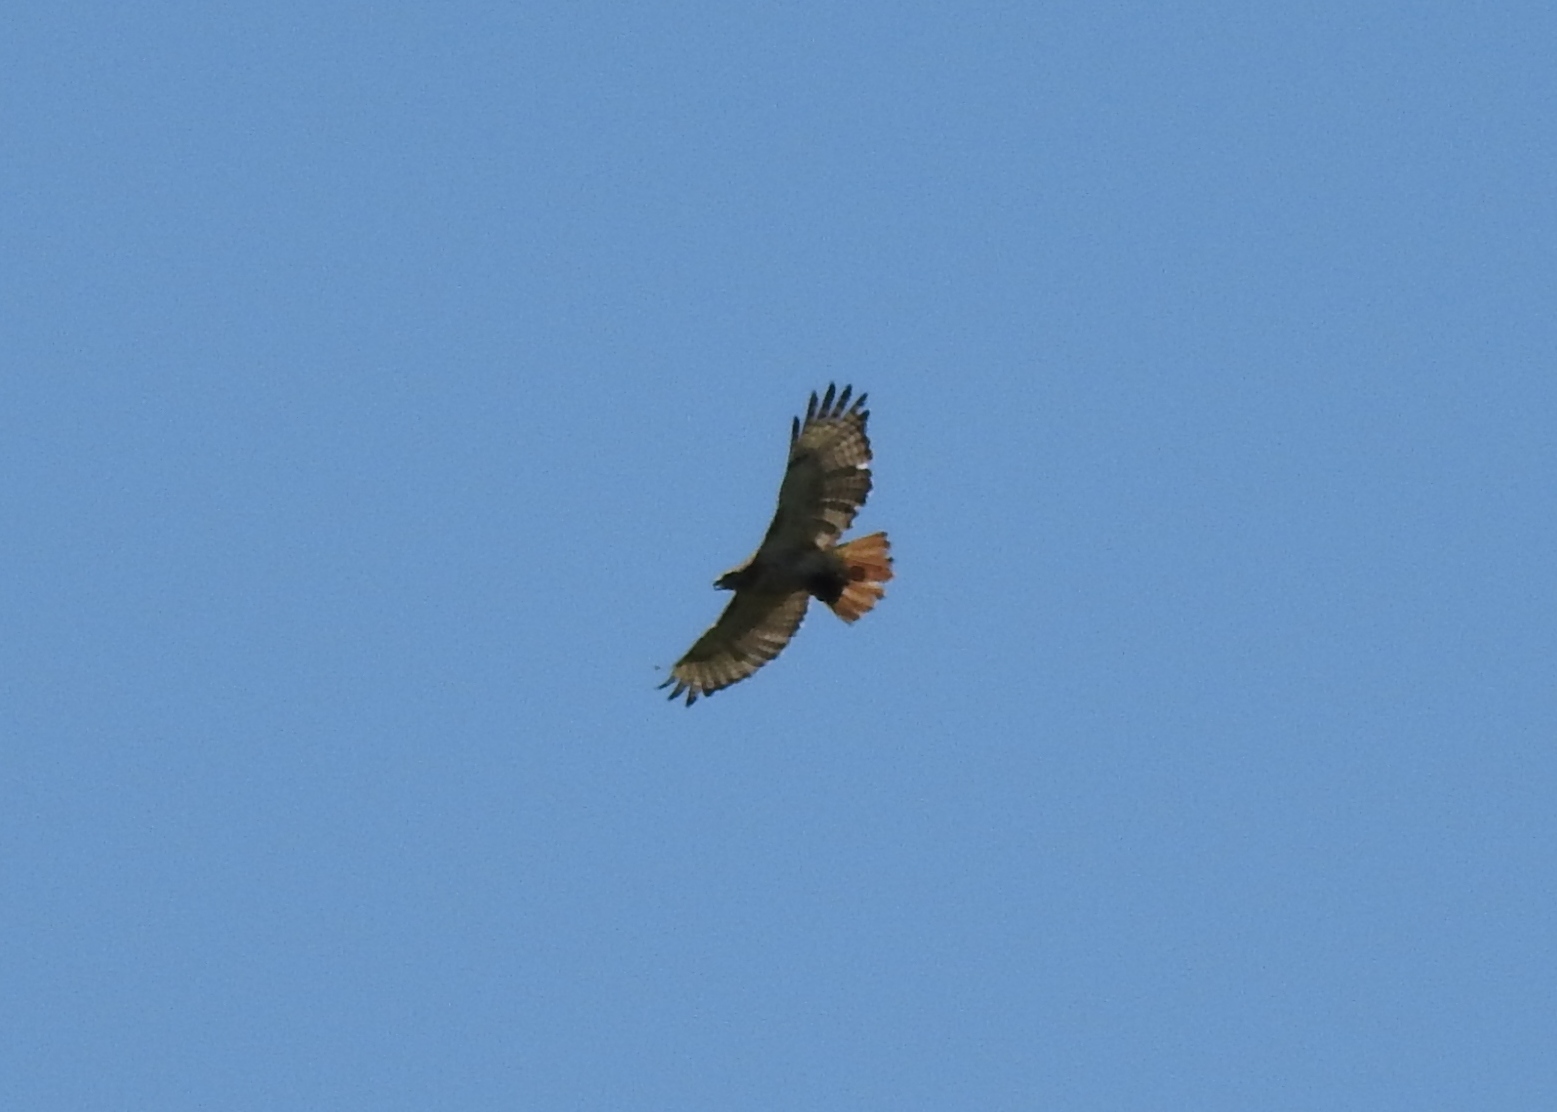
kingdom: Animalia
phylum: Chordata
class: Aves
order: Accipitriformes
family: Accipitridae
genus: Buteo
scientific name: Buteo jamaicensis
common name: Red-tailed hawk
